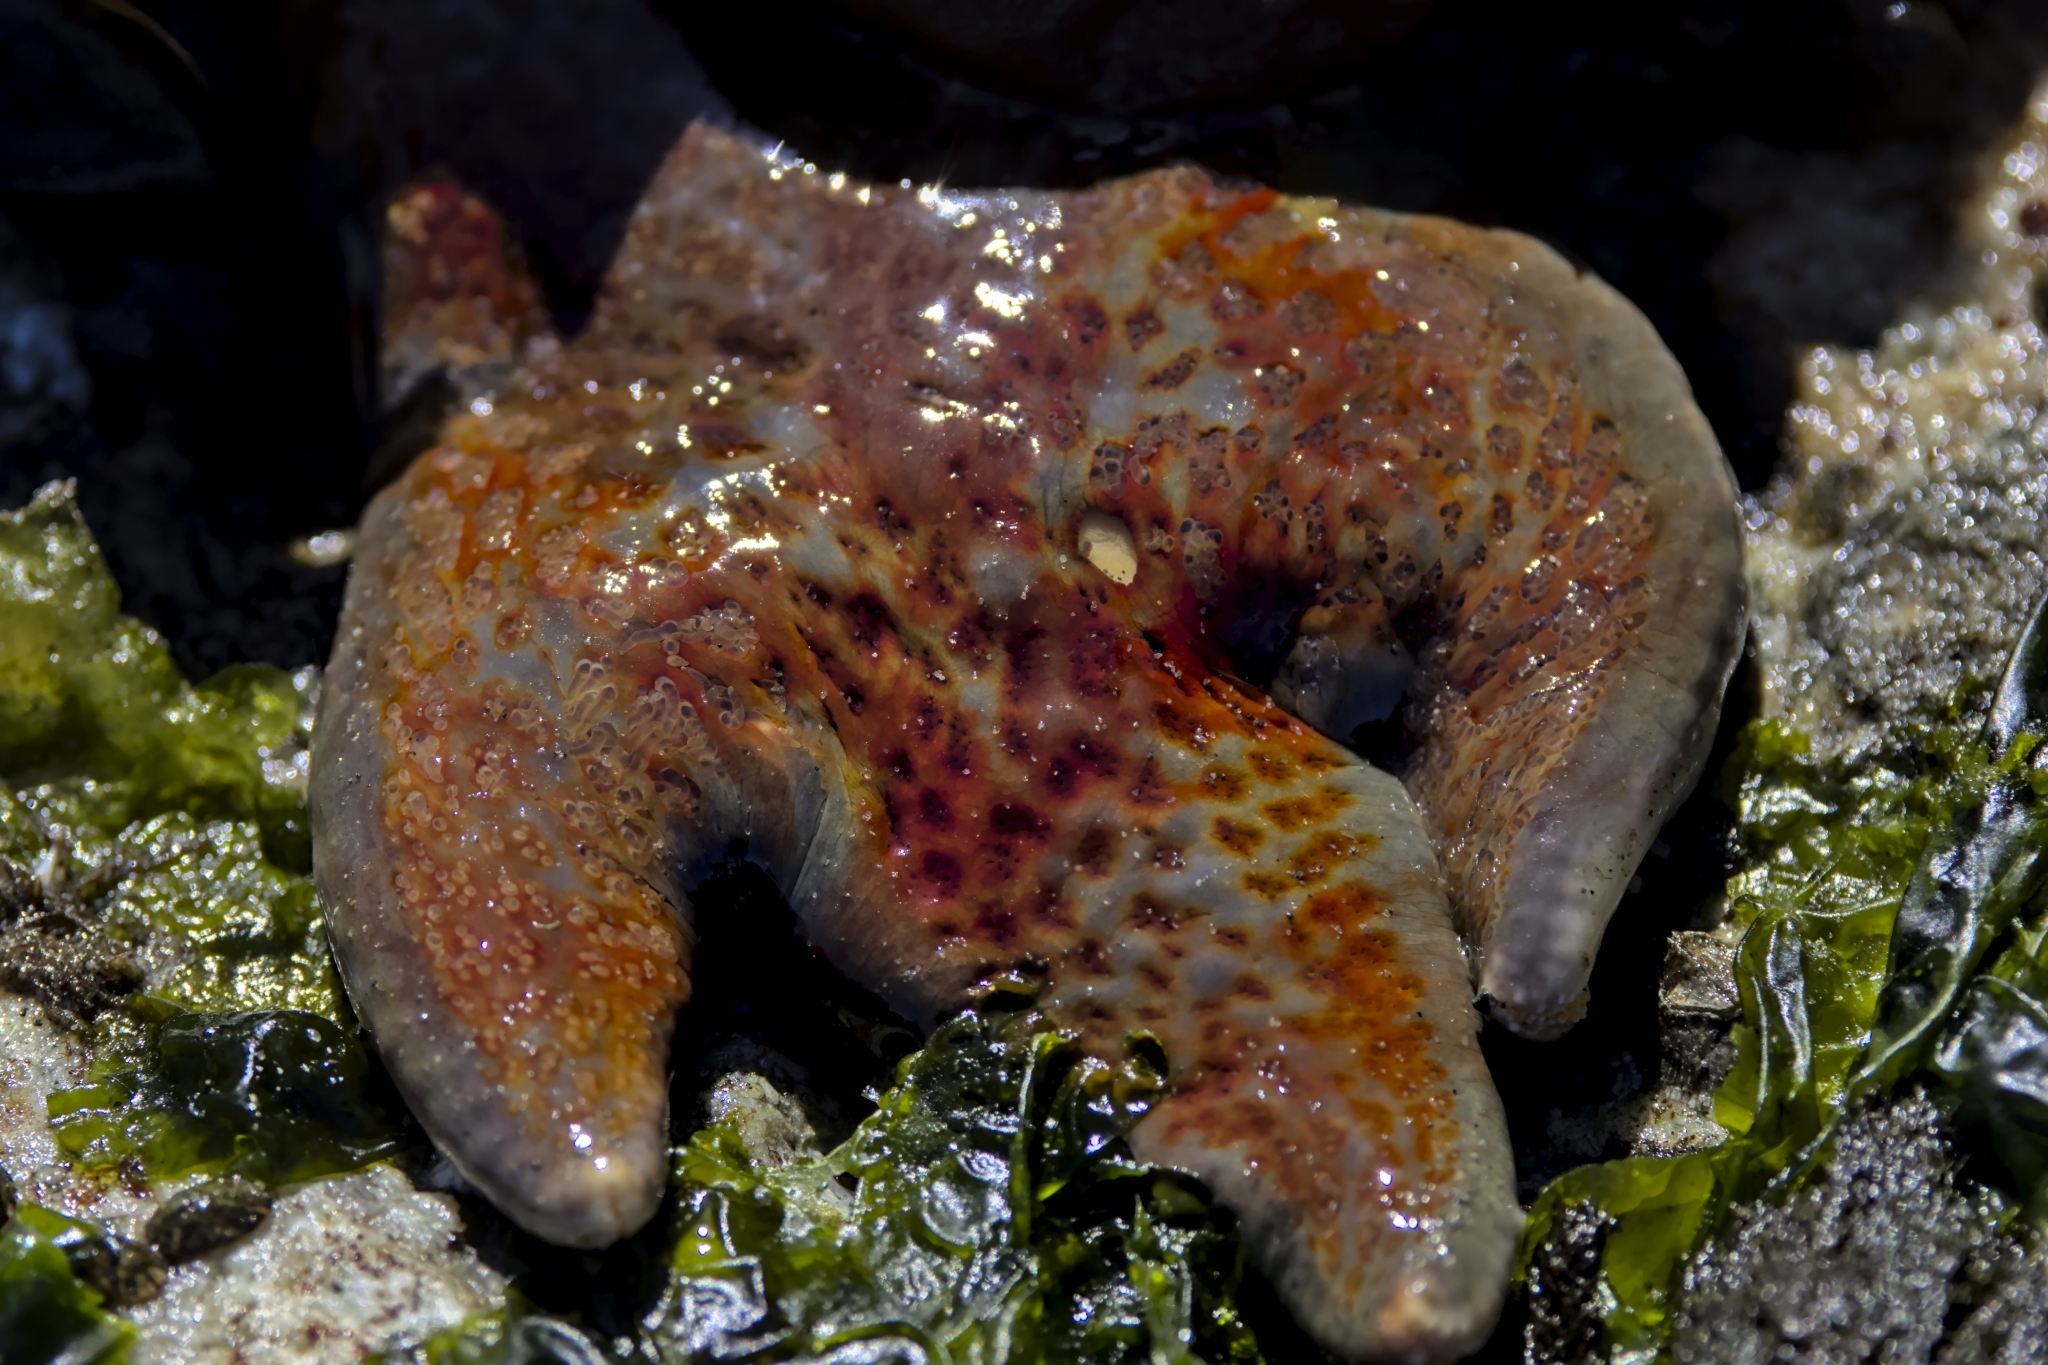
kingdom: Animalia
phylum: Echinodermata
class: Asteroidea
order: Valvatida
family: Asteropseidae
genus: Dermasterias
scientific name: Dermasterias imbricata
